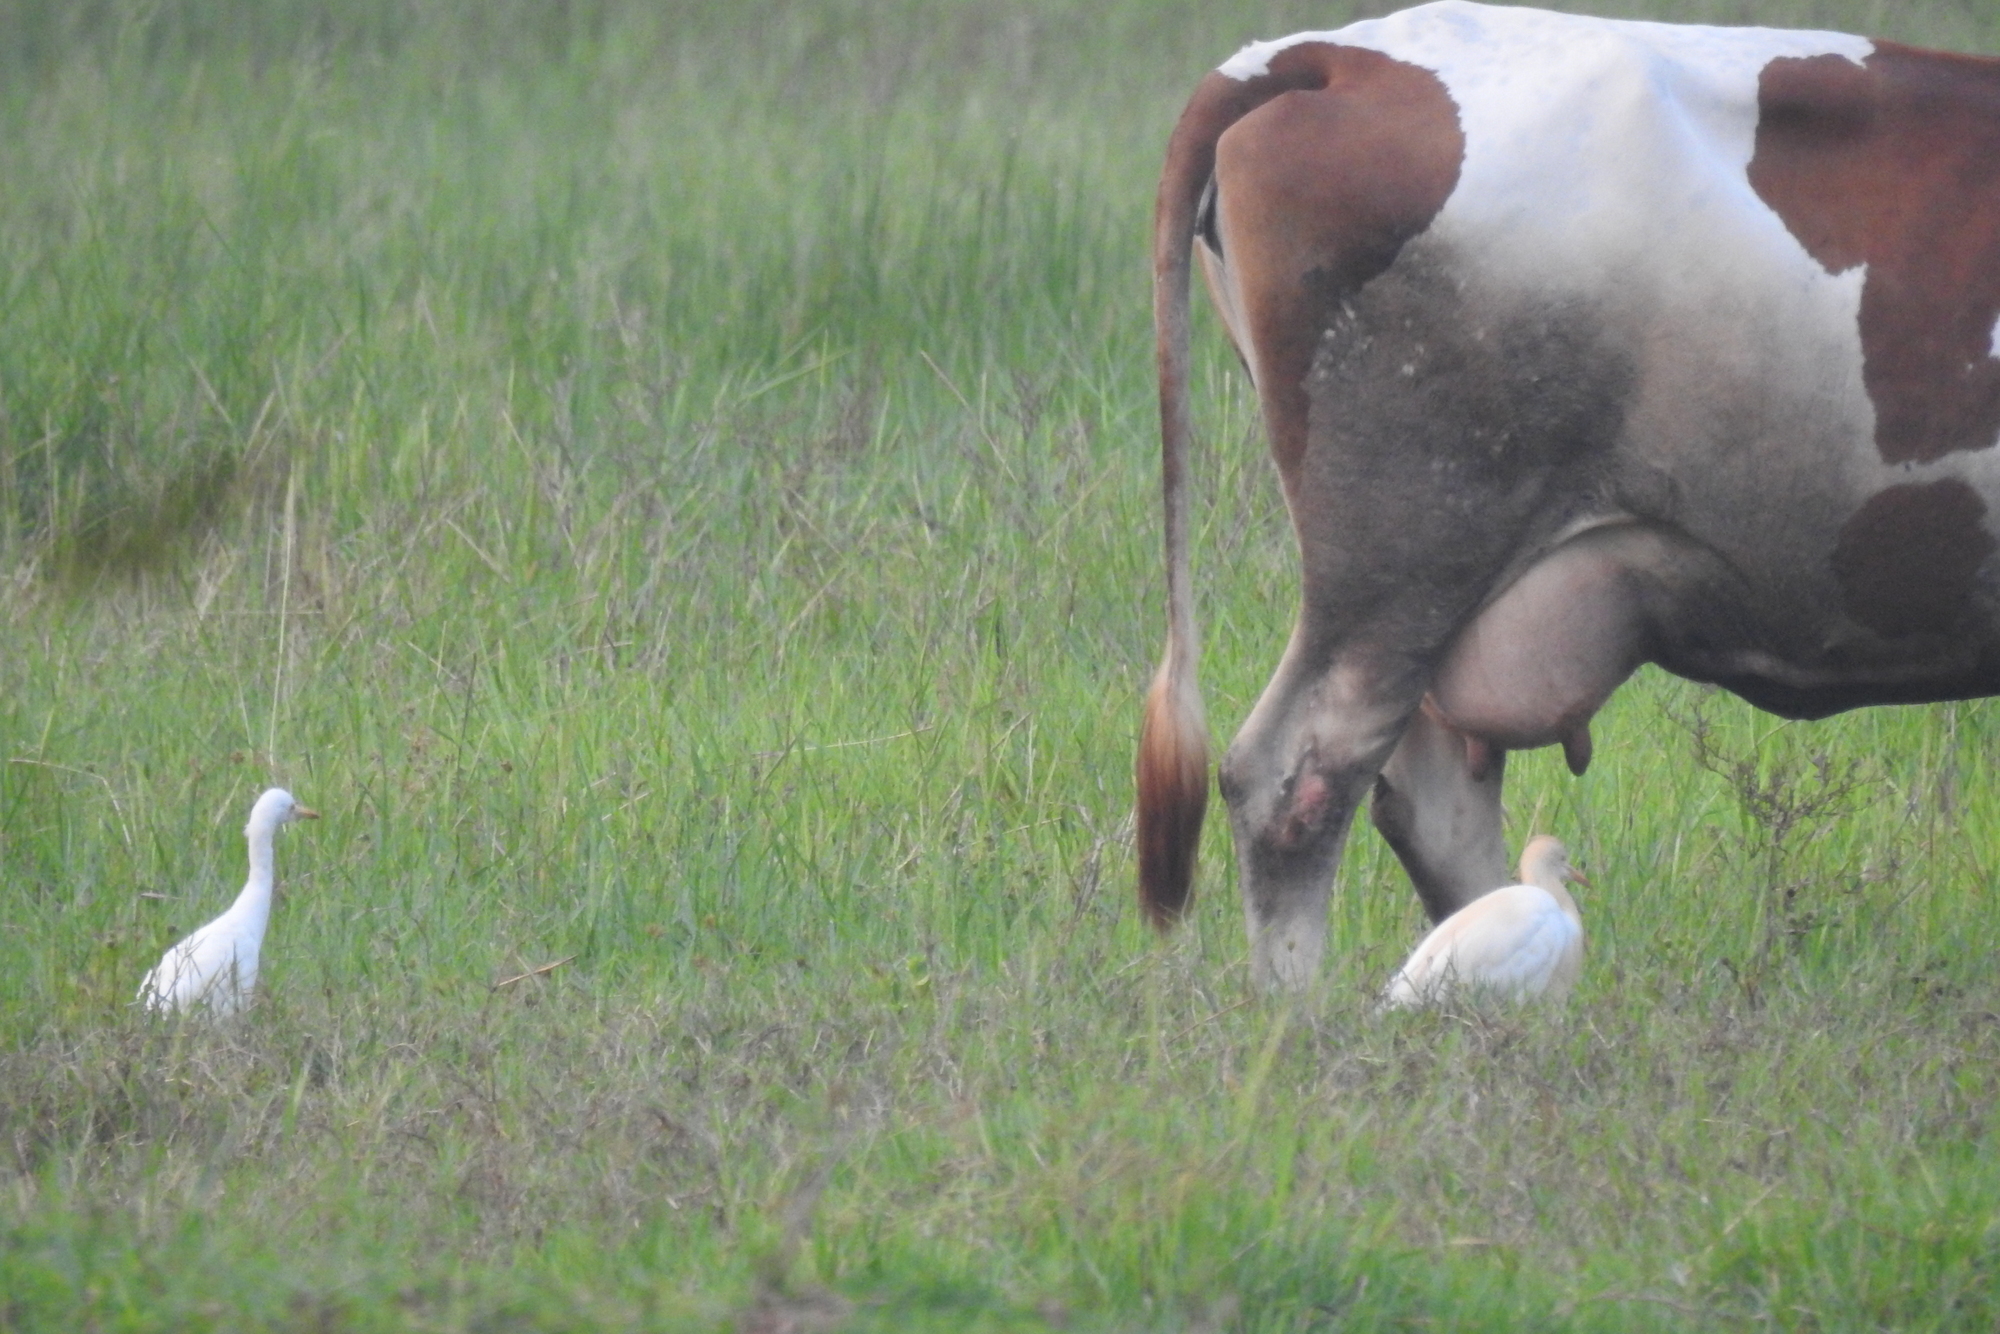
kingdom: Animalia
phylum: Chordata
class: Aves
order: Pelecaniformes
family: Ardeidae
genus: Bubulcus
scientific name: Bubulcus coromandus
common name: Eastern cattle egret
